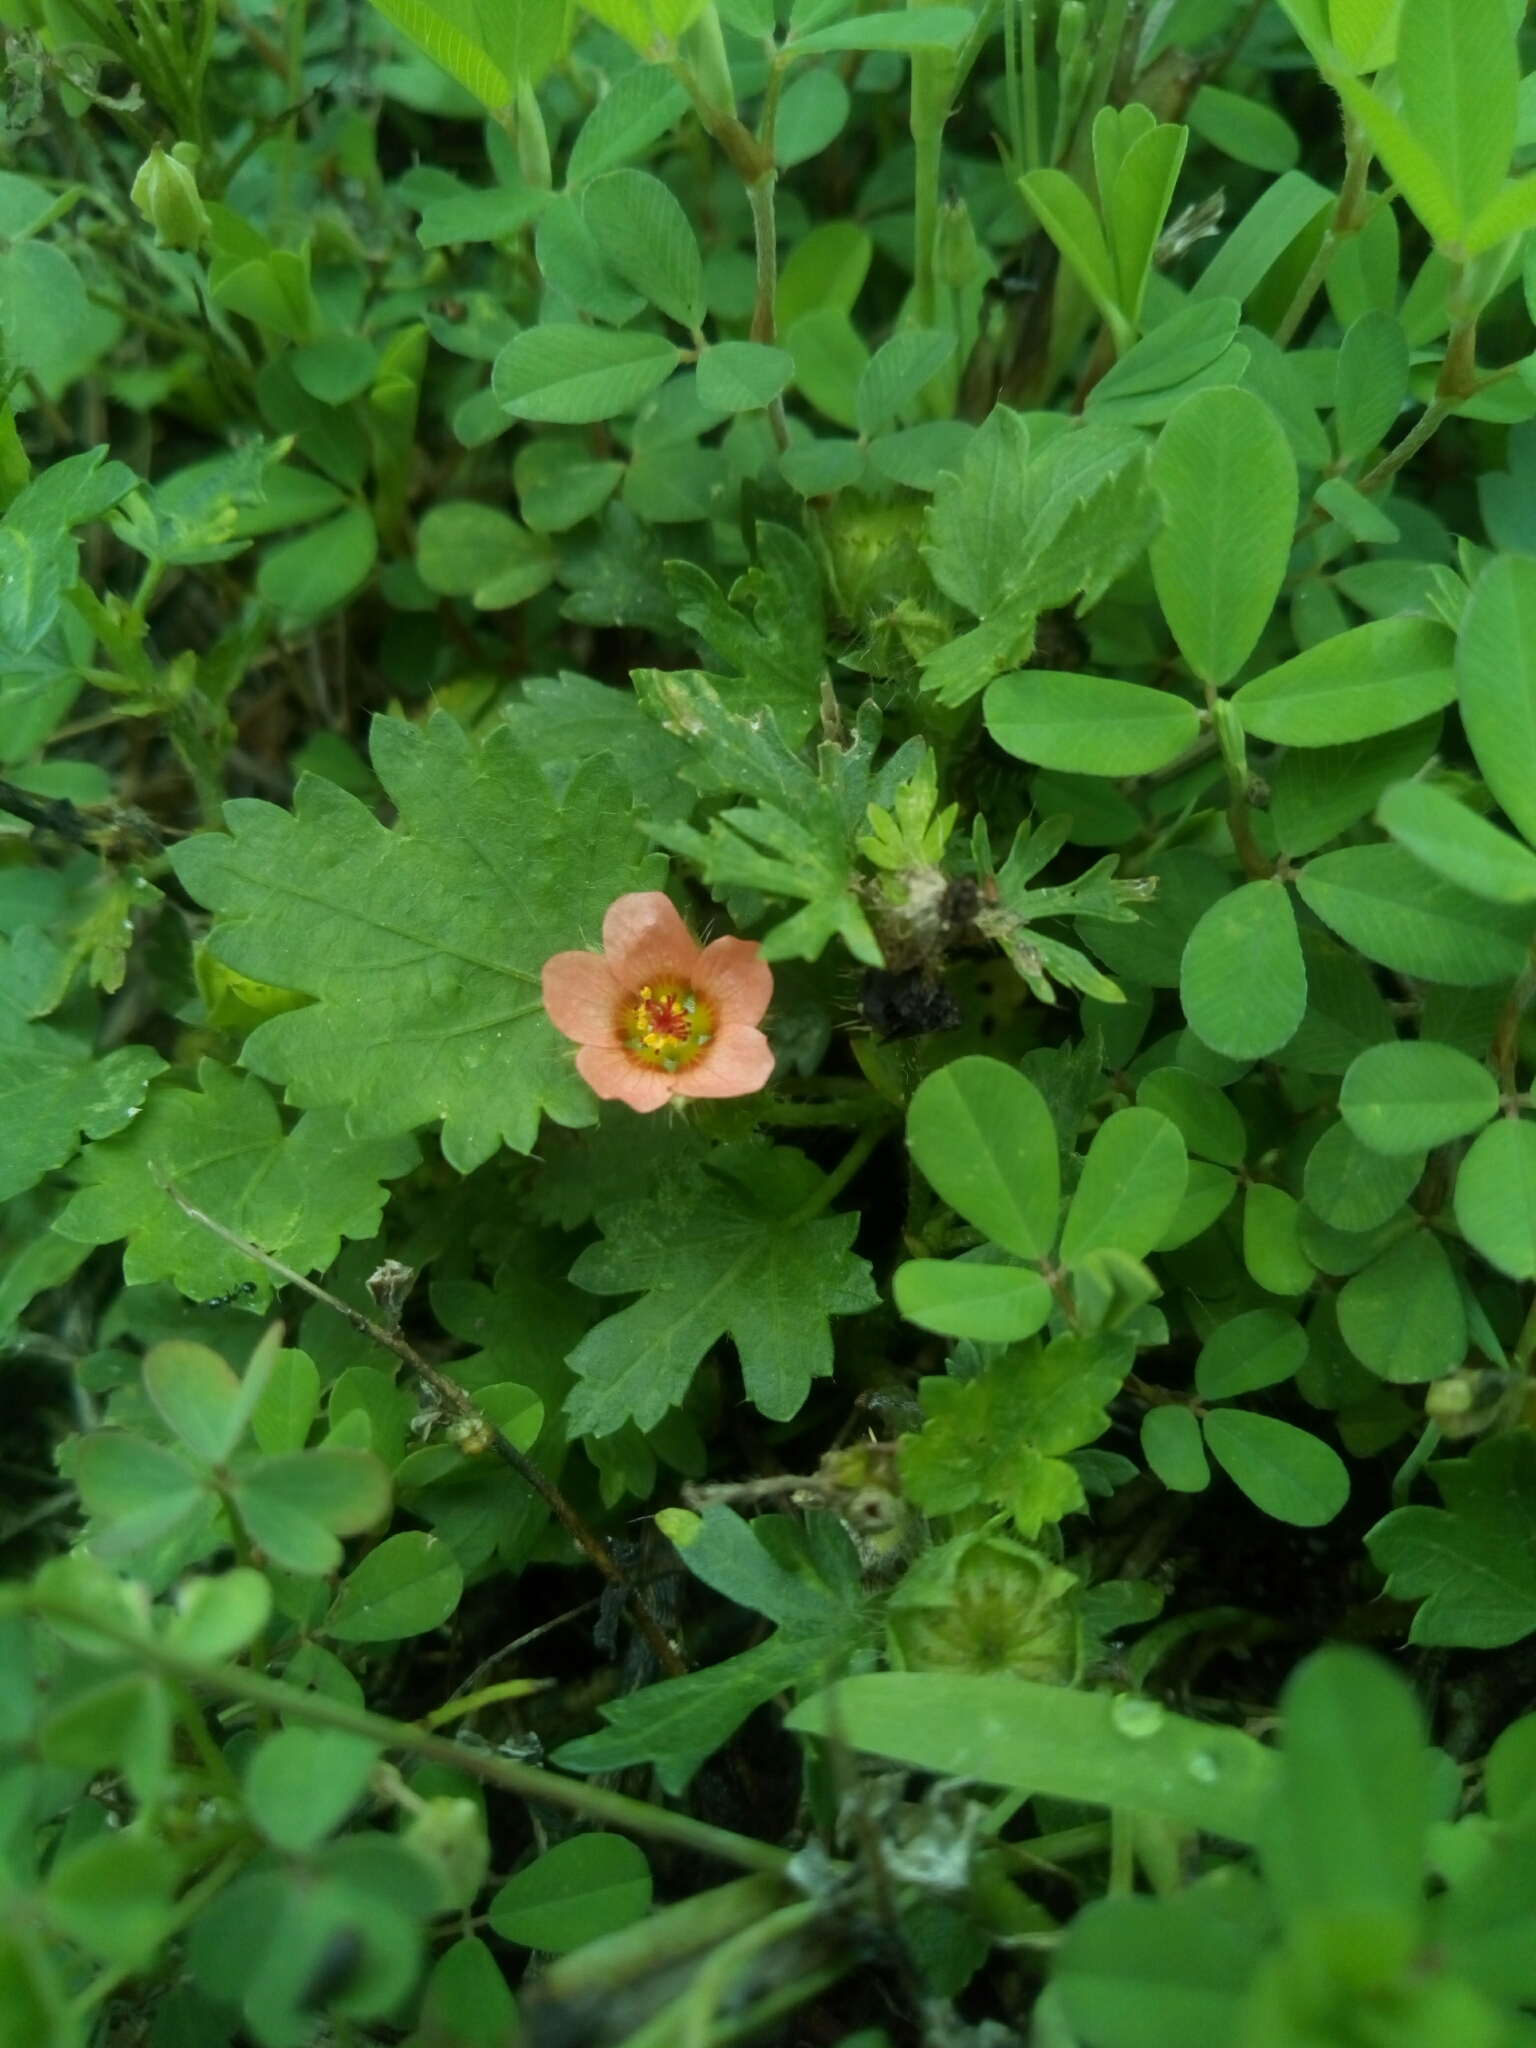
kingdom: Plantae
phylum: Tracheophyta
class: Magnoliopsida
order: Malvales
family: Malvaceae
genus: Modiola
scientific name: Modiola caroliniana
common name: Carolina bristlemallow
